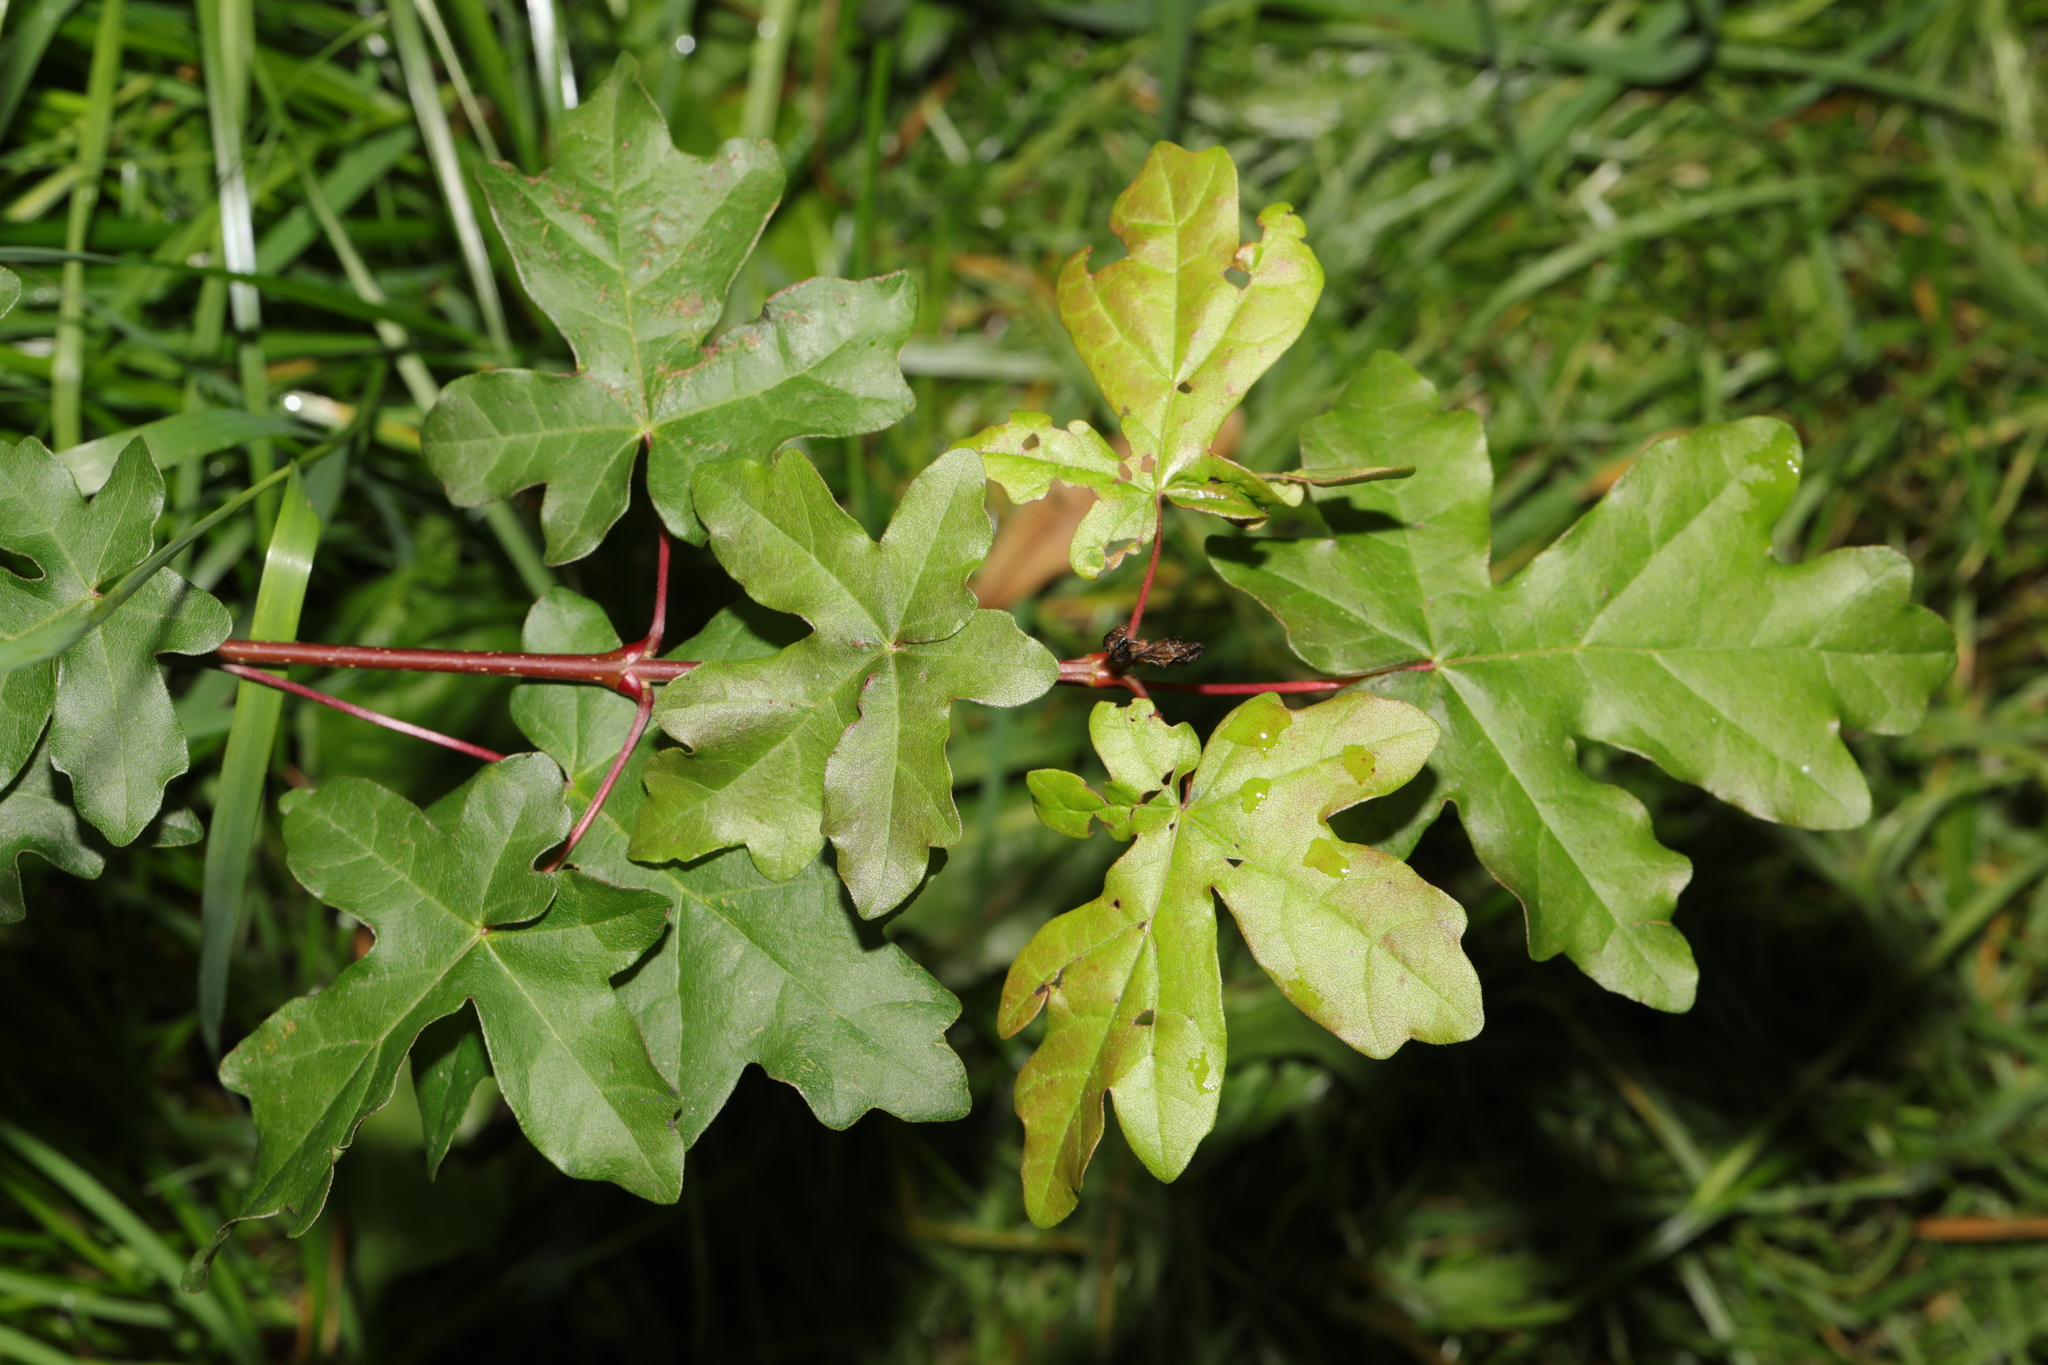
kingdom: Plantae
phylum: Tracheophyta
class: Magnoliopsida
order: Sapindales
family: Sapindaceae
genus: Acer
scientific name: Acer campestre
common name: Field maple
